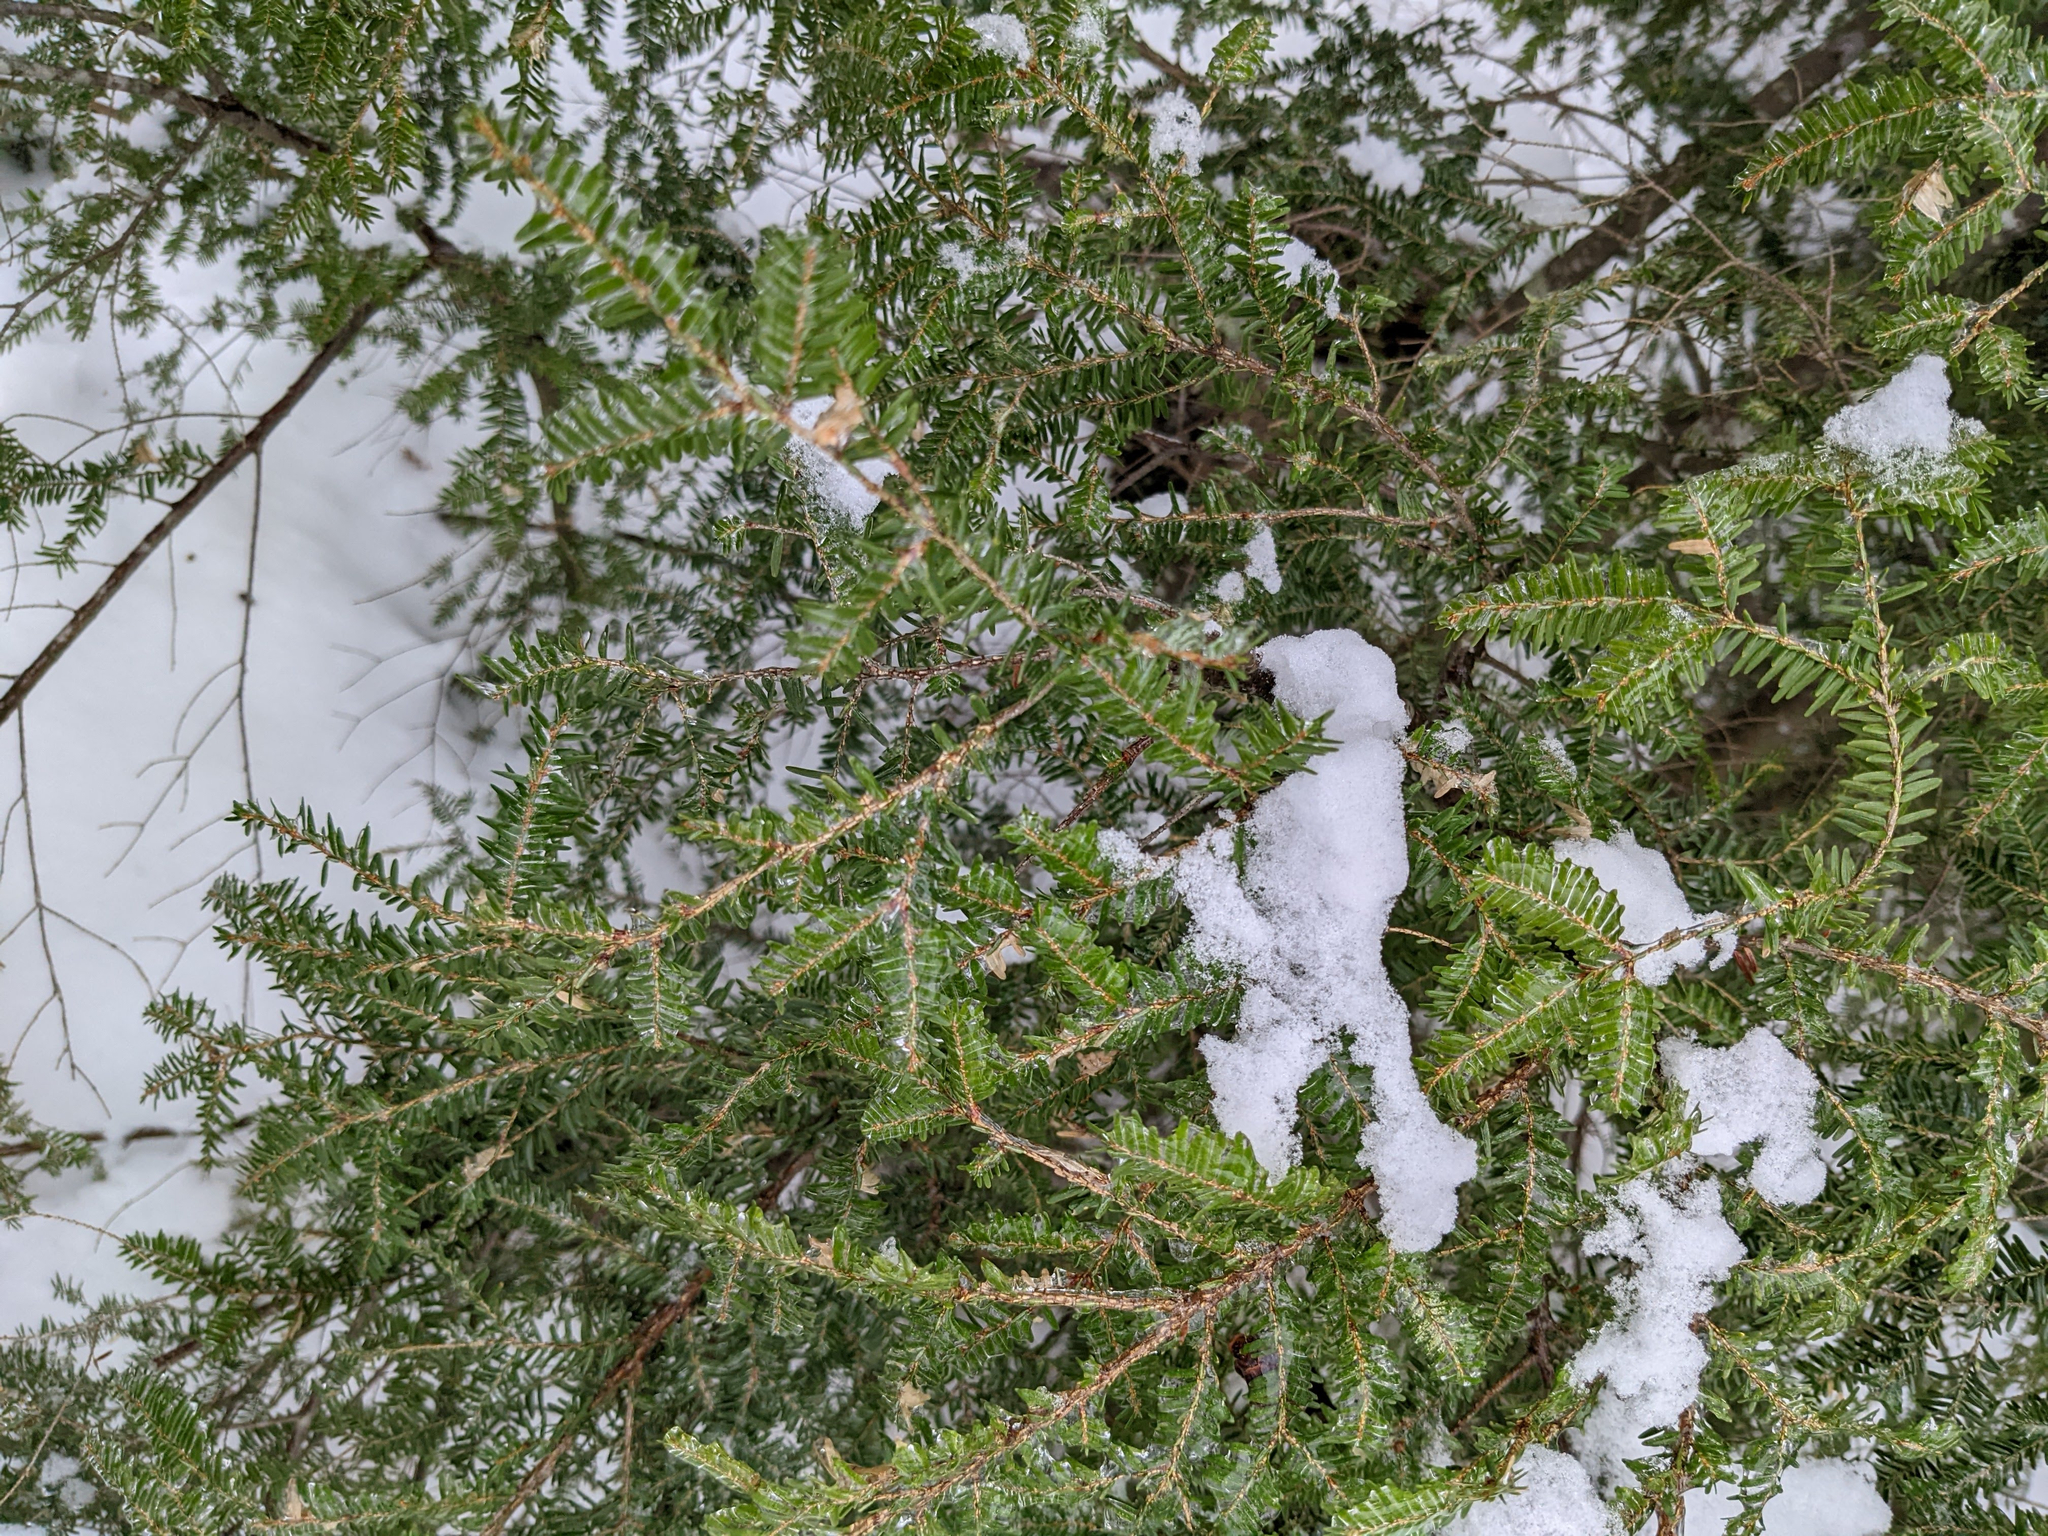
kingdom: Plantae
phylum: Tracheophyta
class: Pinopsida
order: Pinales
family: Pinaceae
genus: Tsuga
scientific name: Tsuga canadensis
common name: Eastern hemlock
